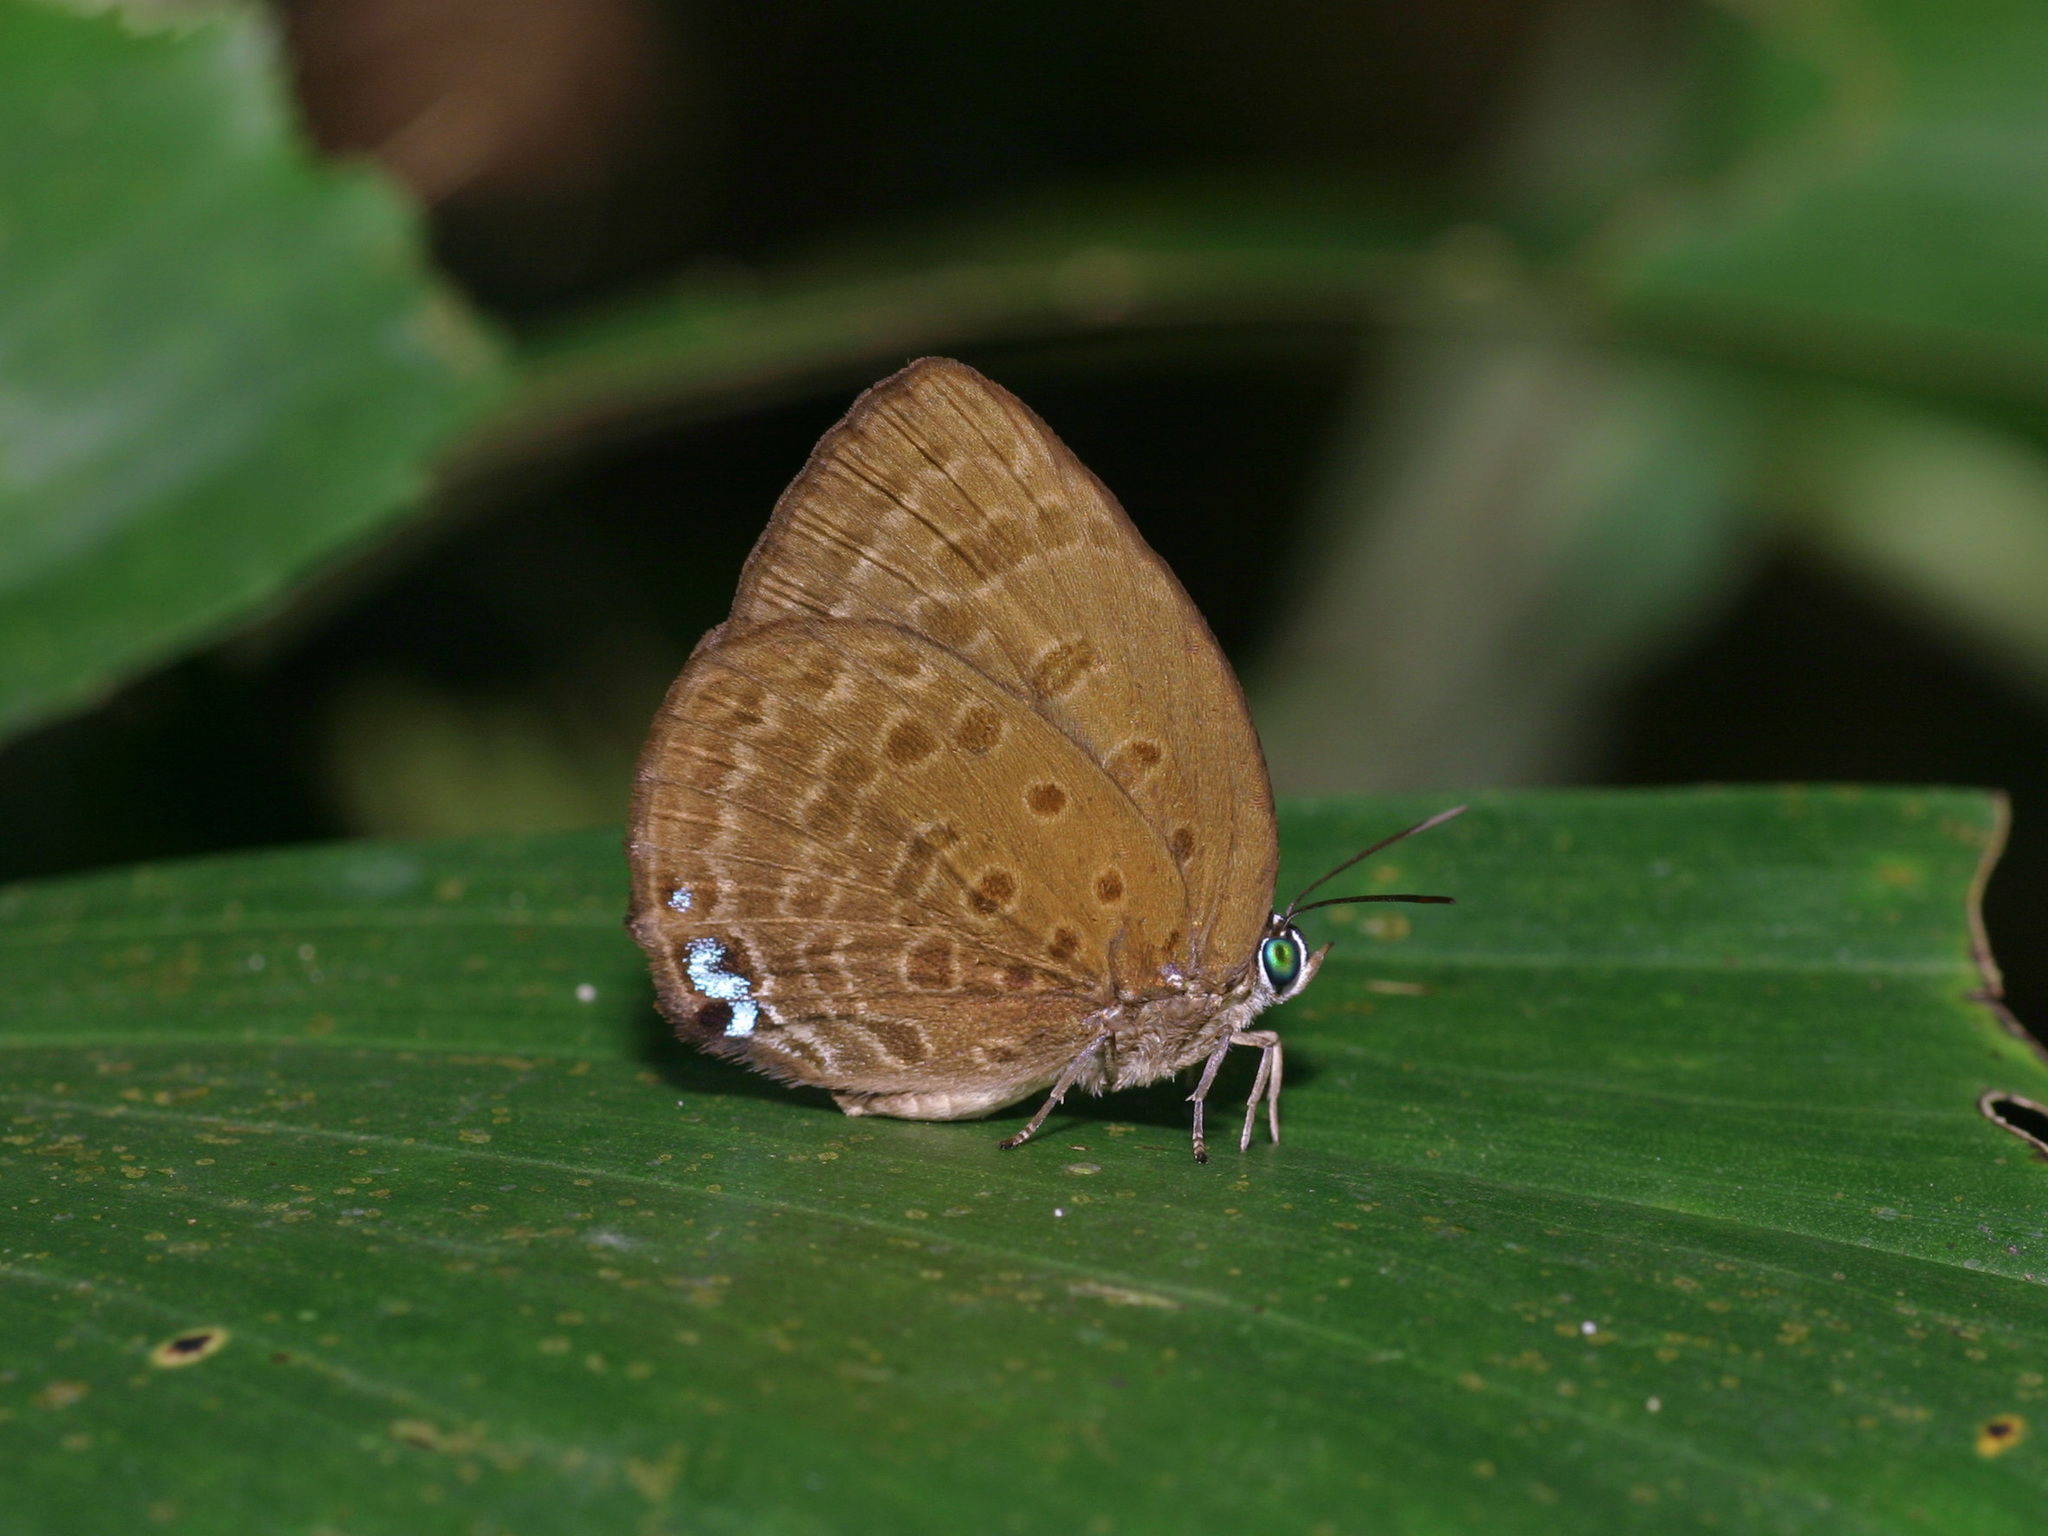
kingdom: Animalia
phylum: Arthropoda
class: Insecta
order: Lepidoptera
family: Lycaenidae
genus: Arhopala
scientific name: Arhopala major
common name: Major yellow oakblue
